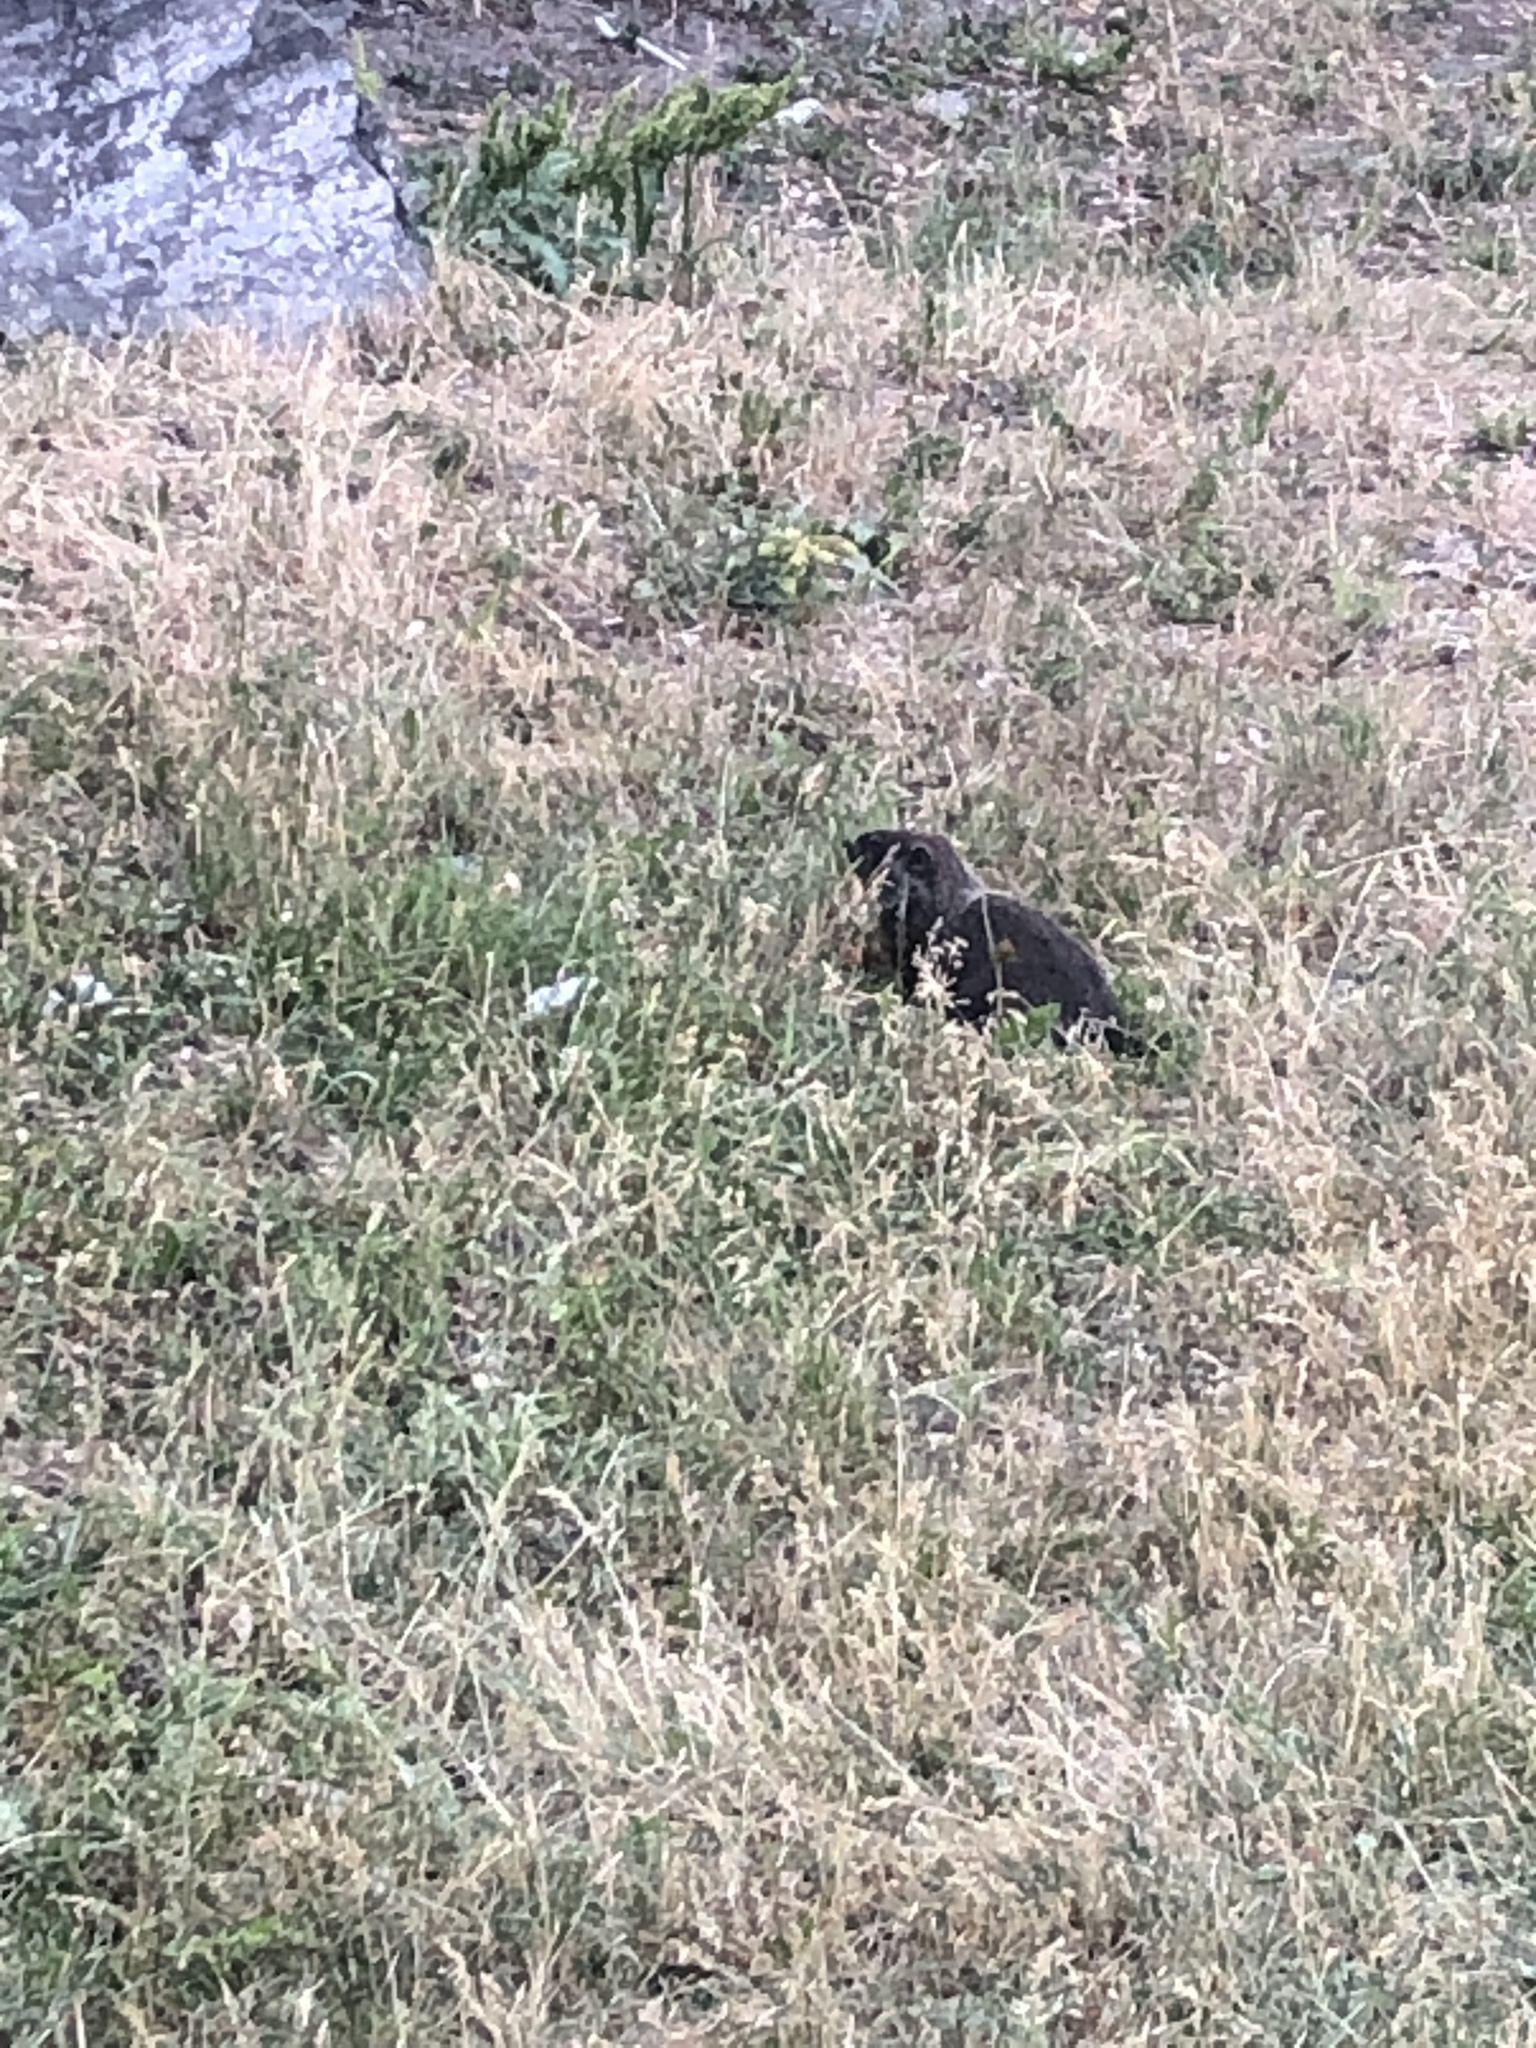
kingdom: Animalia
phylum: Chordata
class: Mammalia
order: Rodentia
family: Sciuridae
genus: Marmota
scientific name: Marmota monax
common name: Groundhog
